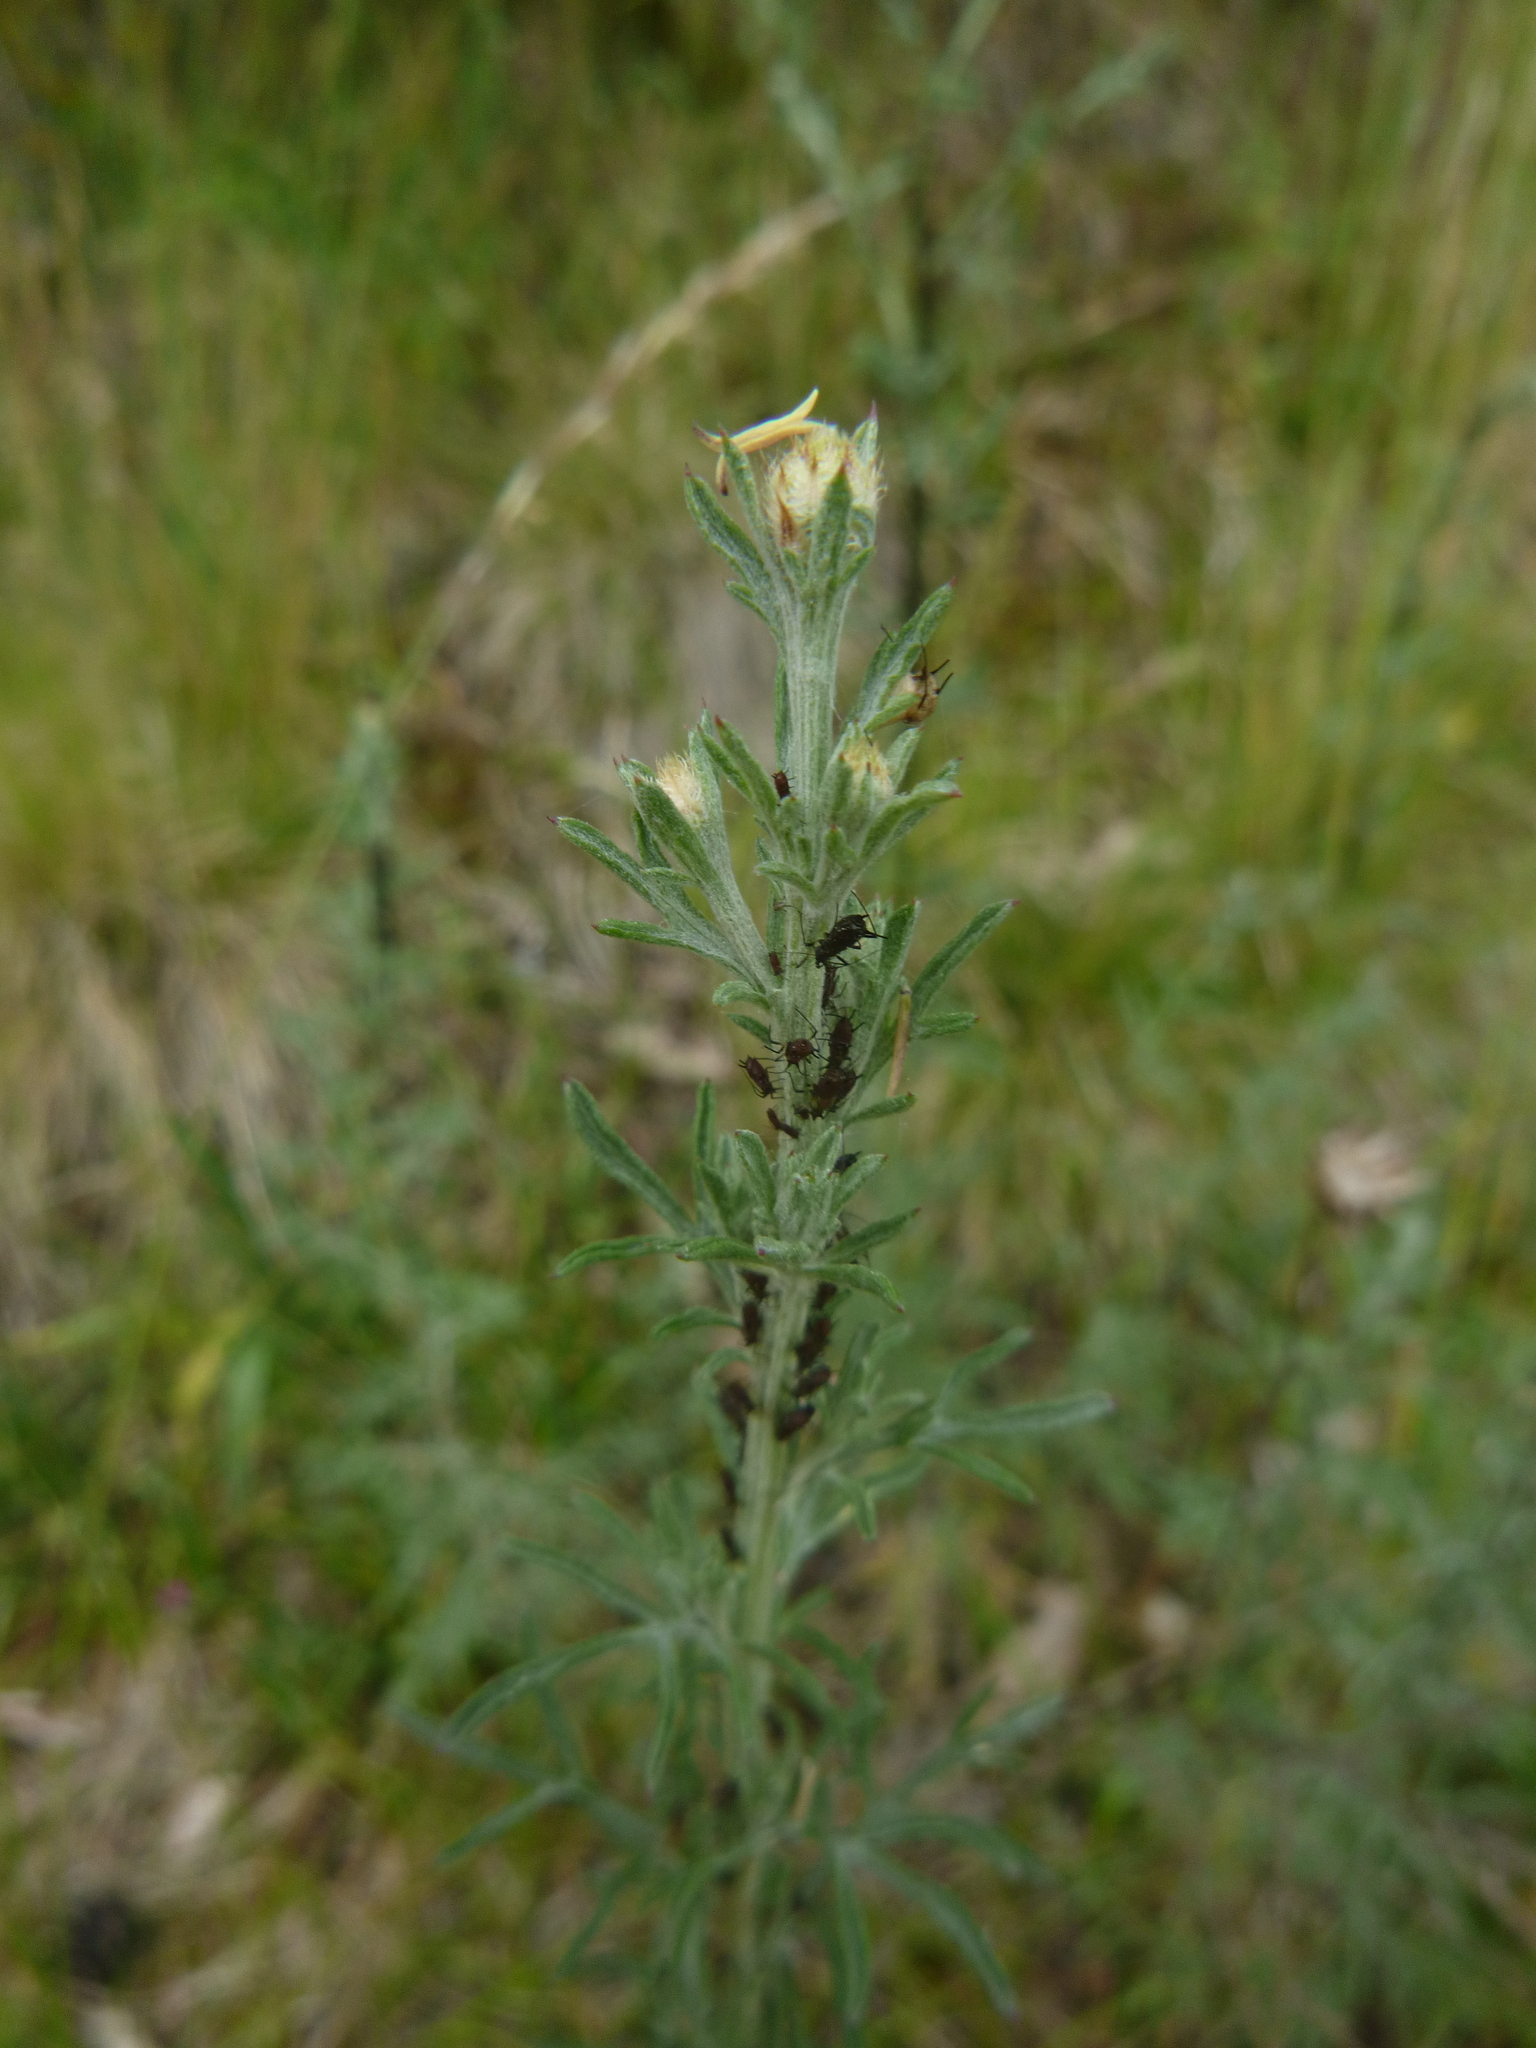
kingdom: Plantae
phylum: Tracheophyta
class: Magnoliopsida
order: Asterales
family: Asteraceae
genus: Centaurea
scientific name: Centaurea stoebe
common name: Spotted knapweed
